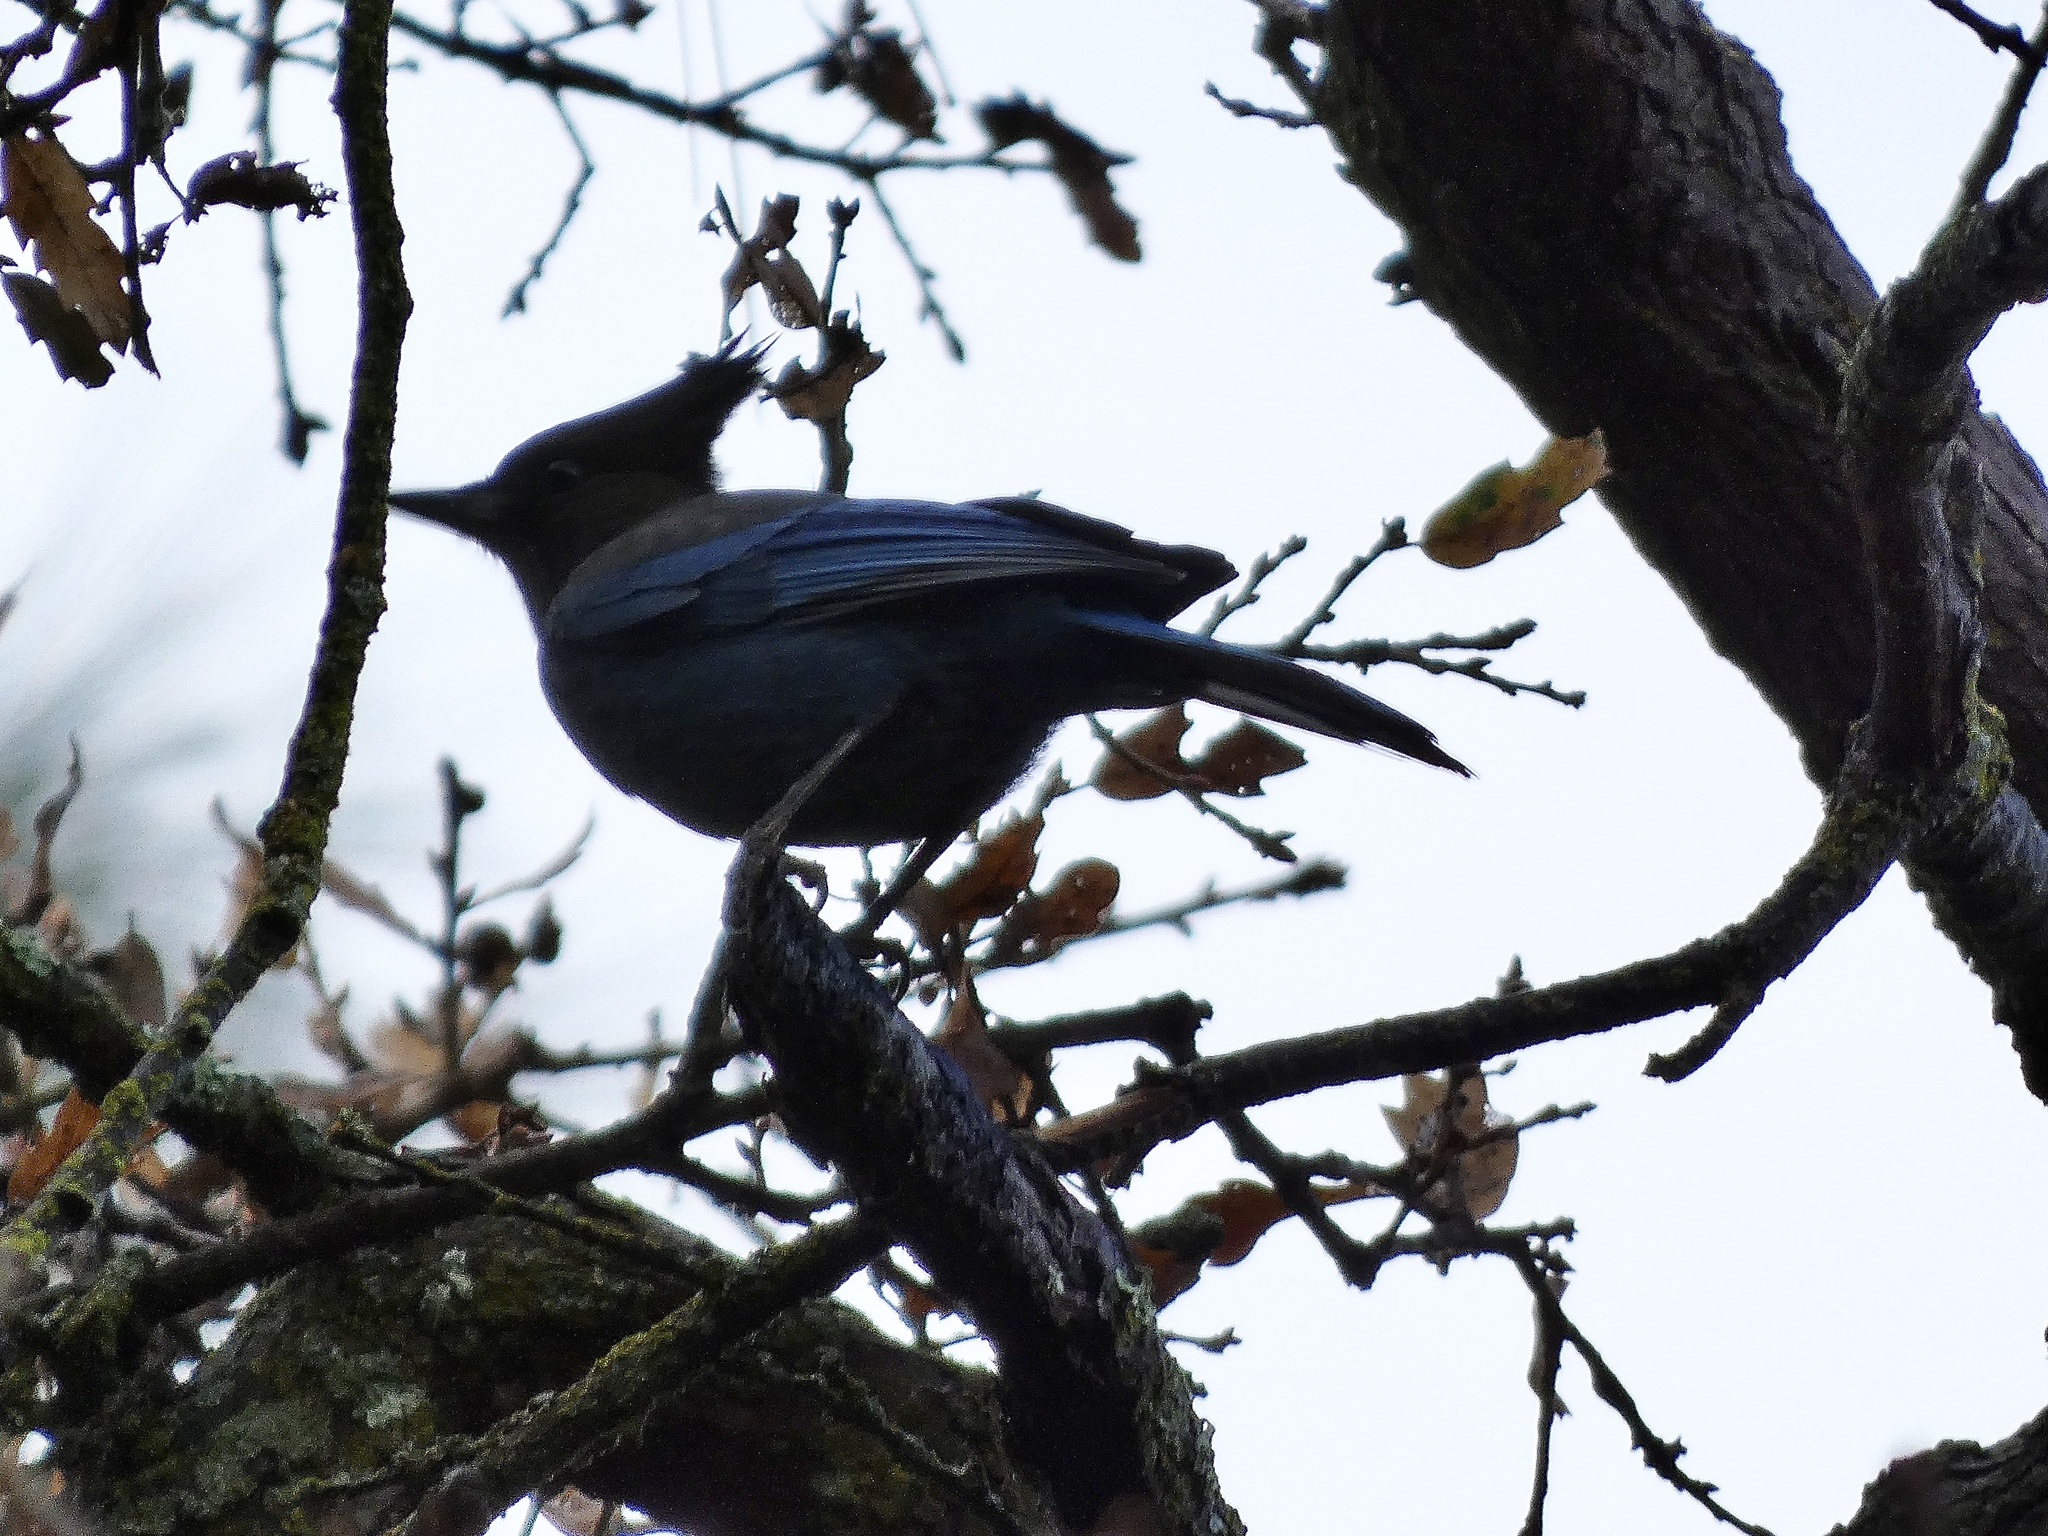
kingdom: Animalia
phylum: Chordata
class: Aves
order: Passeriformes
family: Corvidae
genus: Cyanocitta
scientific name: Cyanocitta stelleri
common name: Steller's jay
